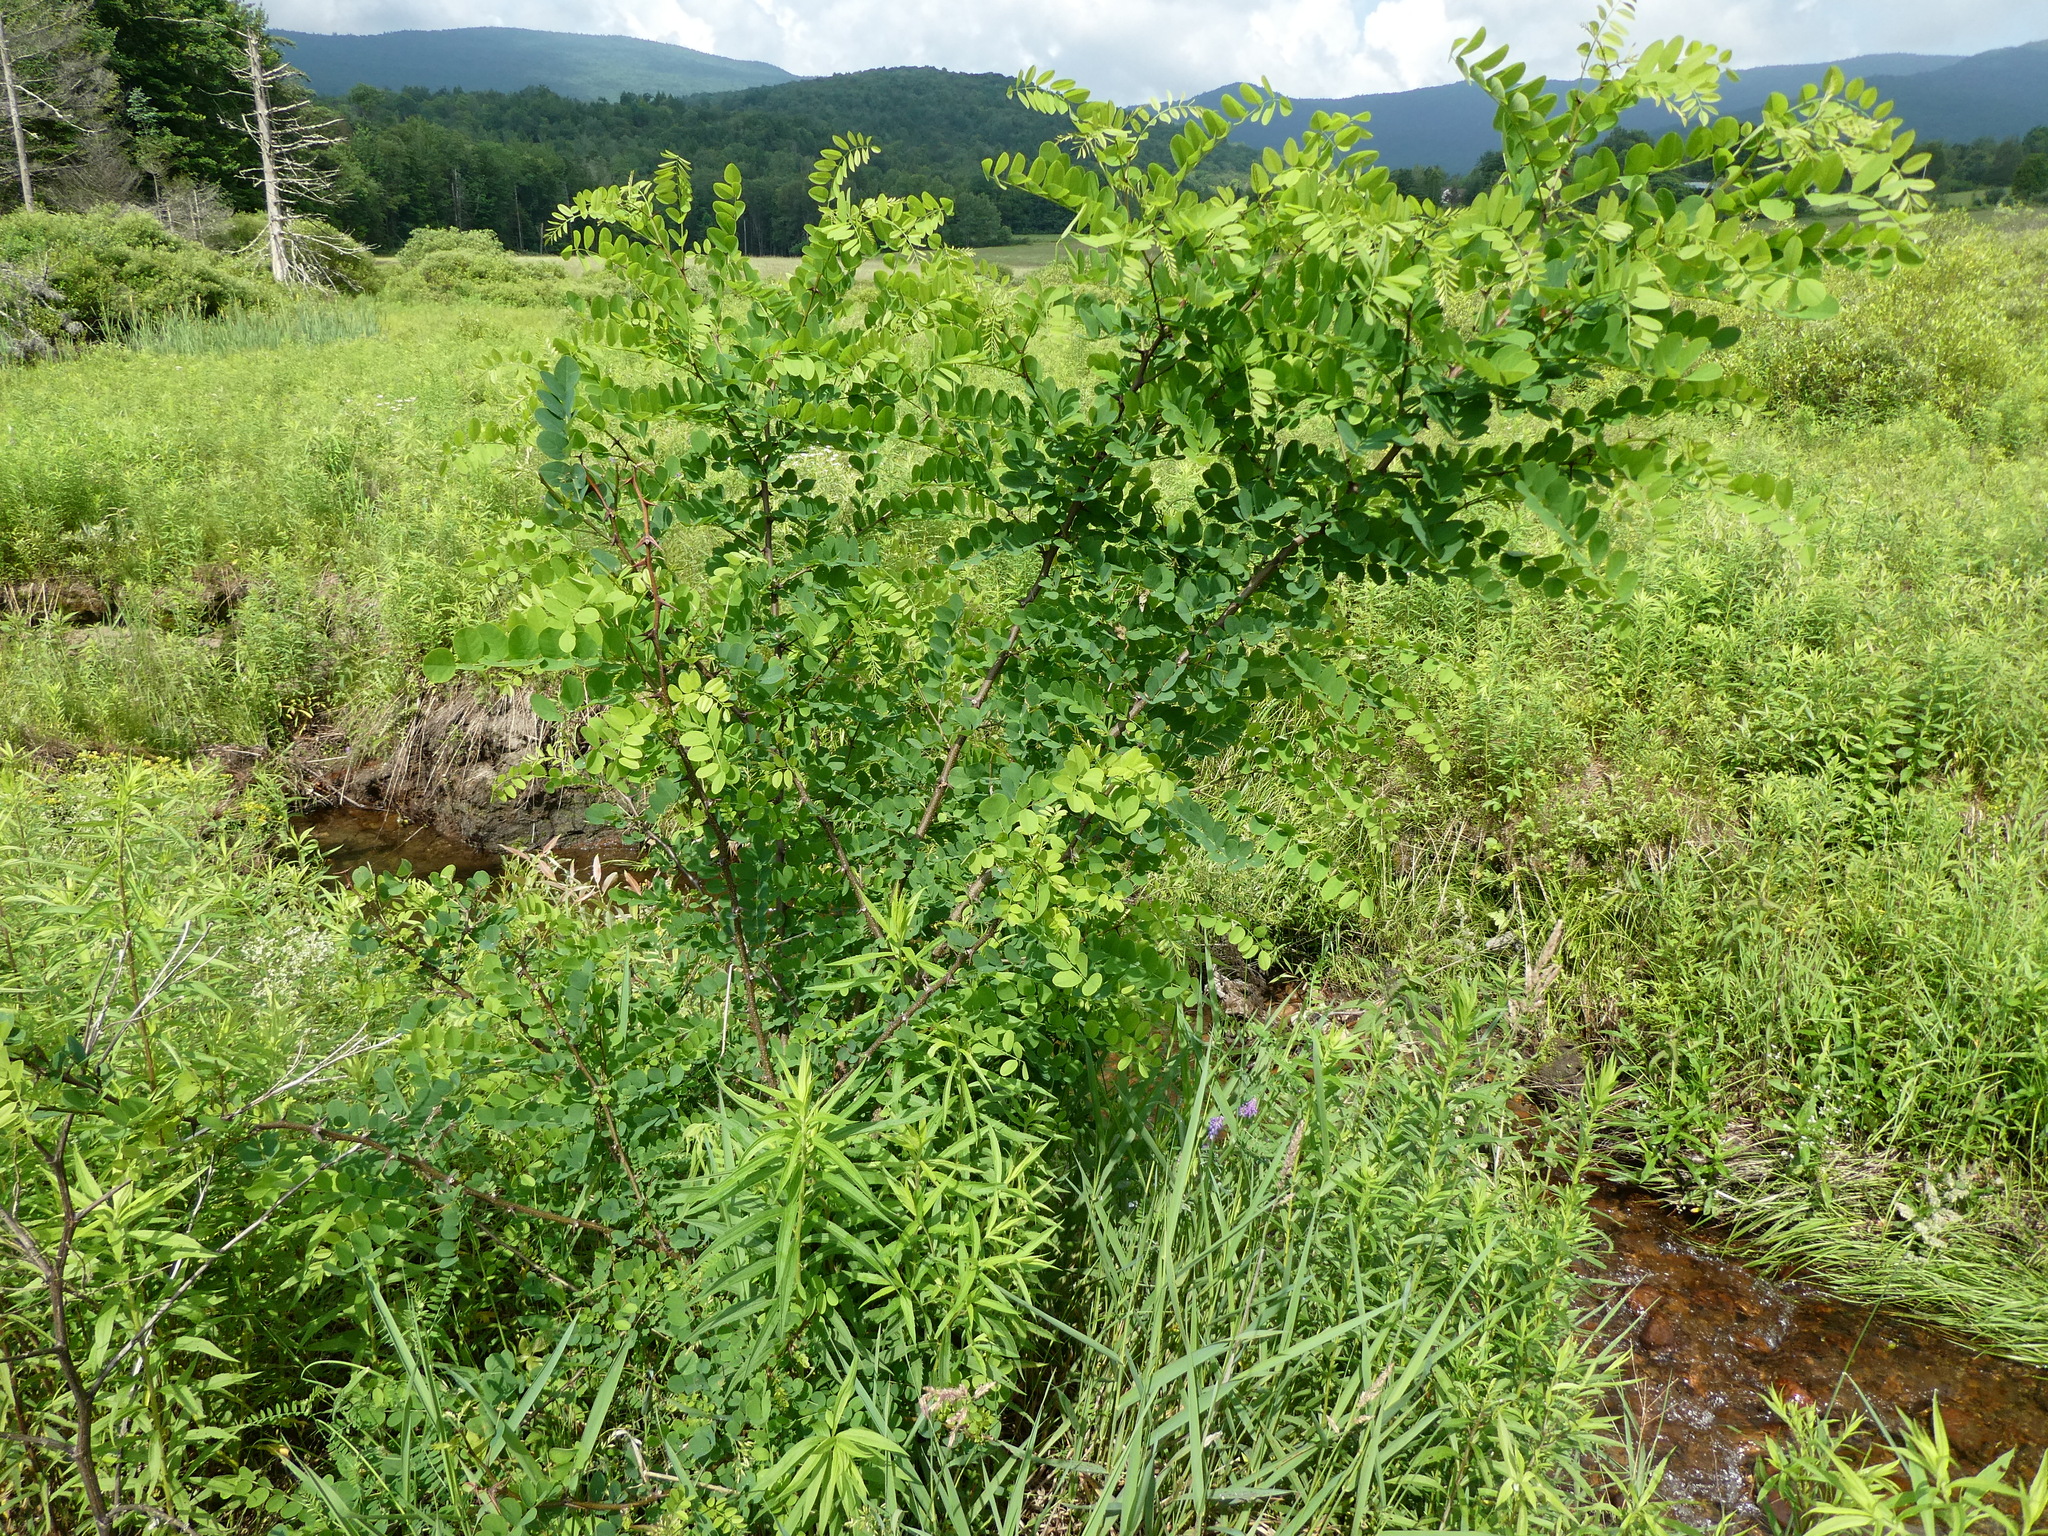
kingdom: Plantae
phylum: Tracheophyta
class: Magnoliopsida
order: Fabales
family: Fabaceae
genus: Robinia
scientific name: Robinia pseudoacacia
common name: Black locust
